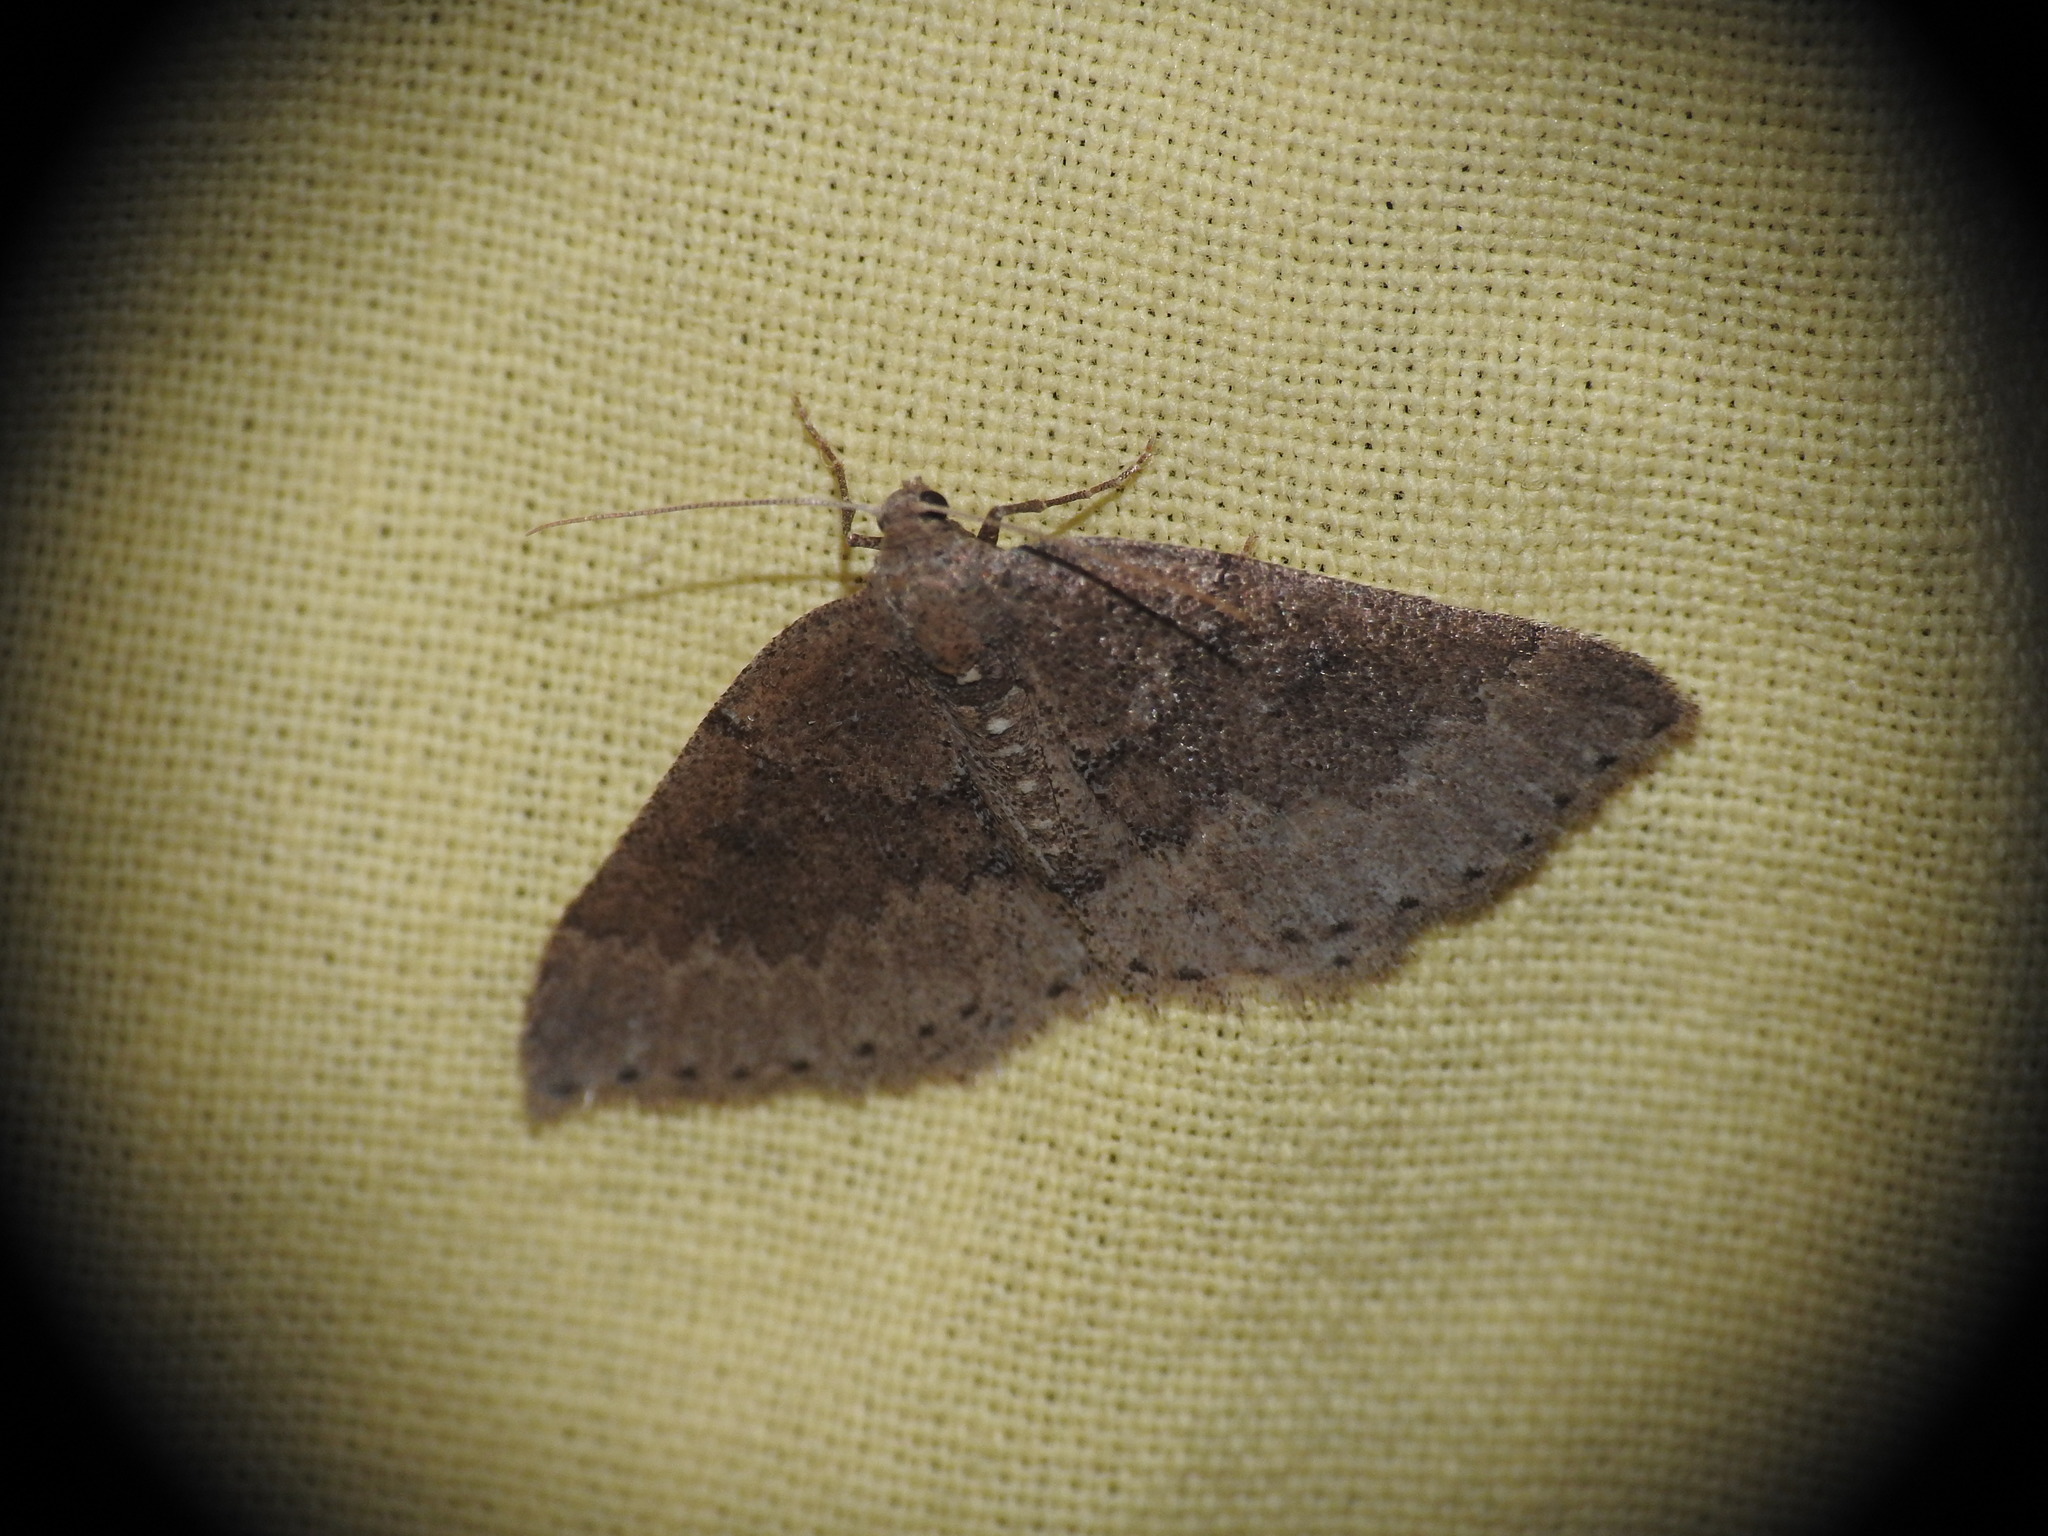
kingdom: Animalia
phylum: Arthropoda
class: Insecta
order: Lepidoptera
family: Geometridae
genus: Aleucis
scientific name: Aleucis distinctata
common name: Sloe carpet
